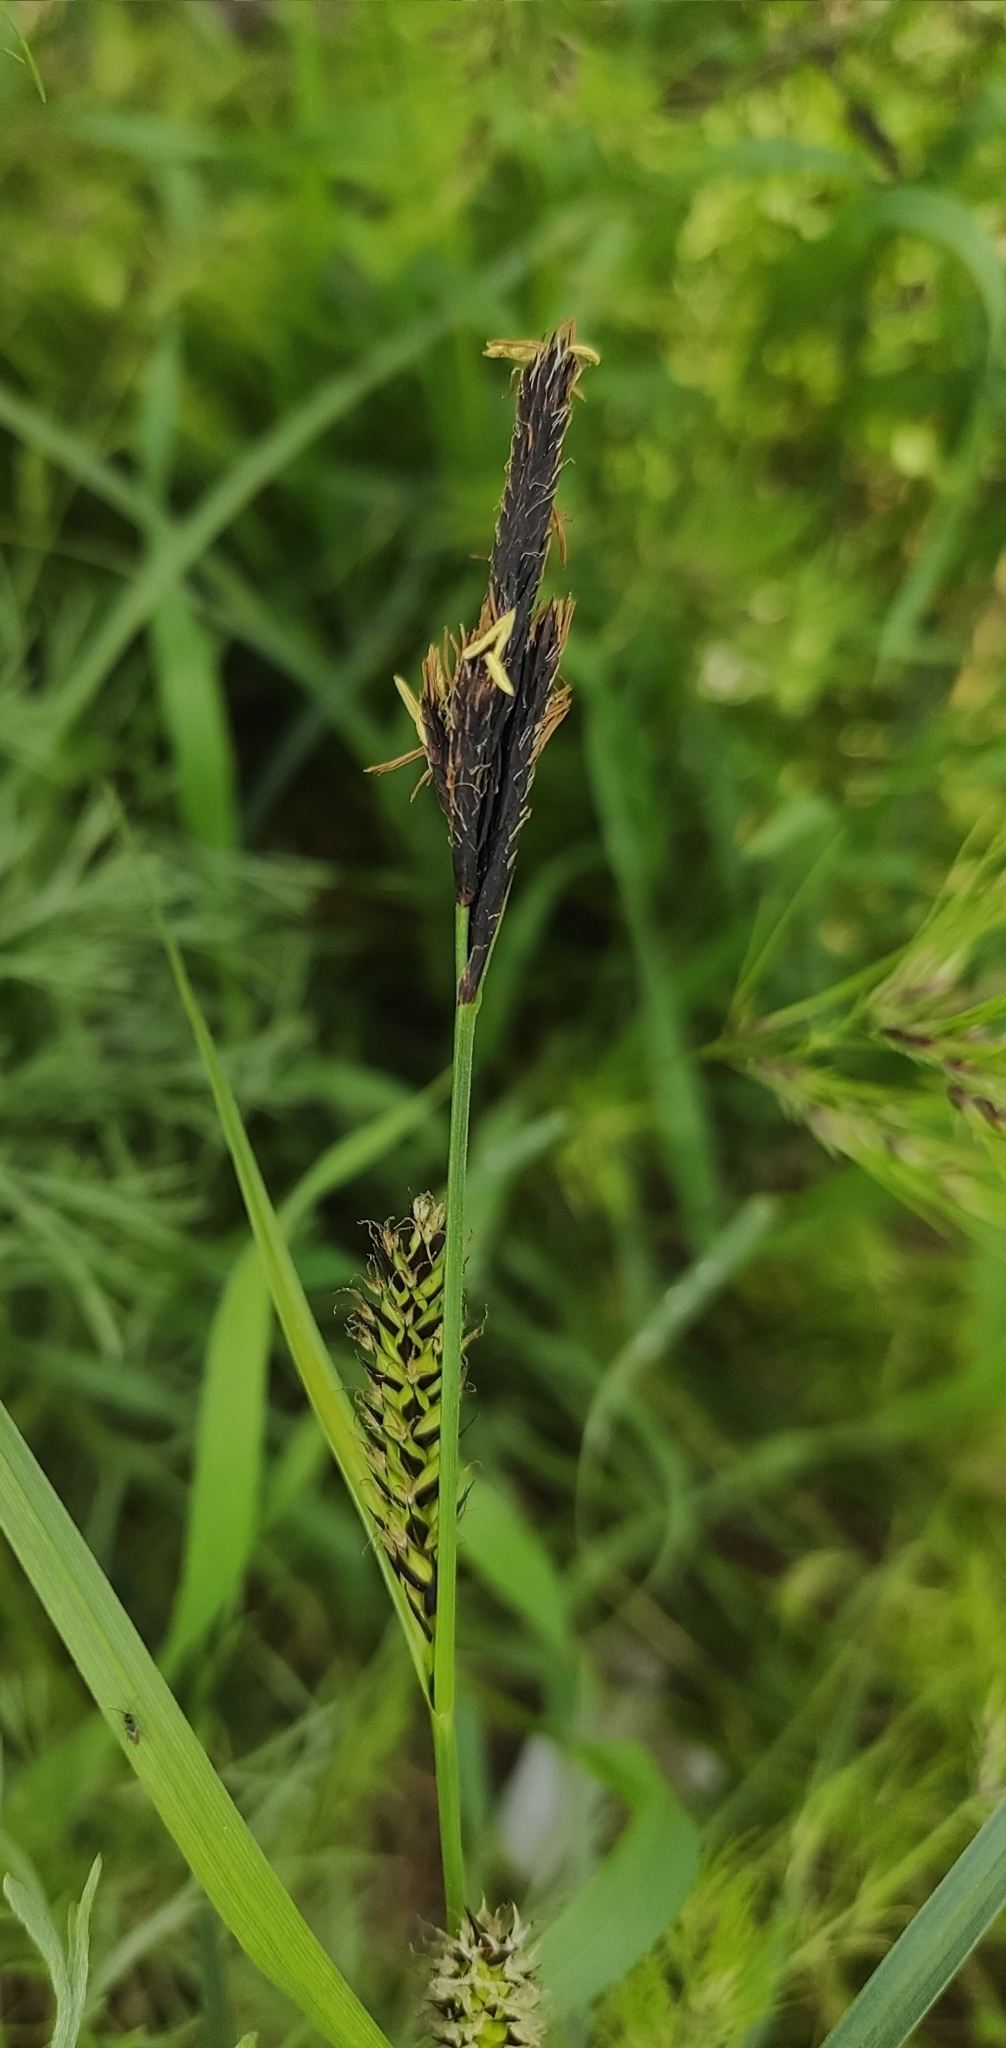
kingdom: Plantae
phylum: Tracheophyta
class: Liliopsida
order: Poales
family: Cyperaceae
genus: Carex
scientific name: Carex melanostachya
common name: Black-spiked sedge
